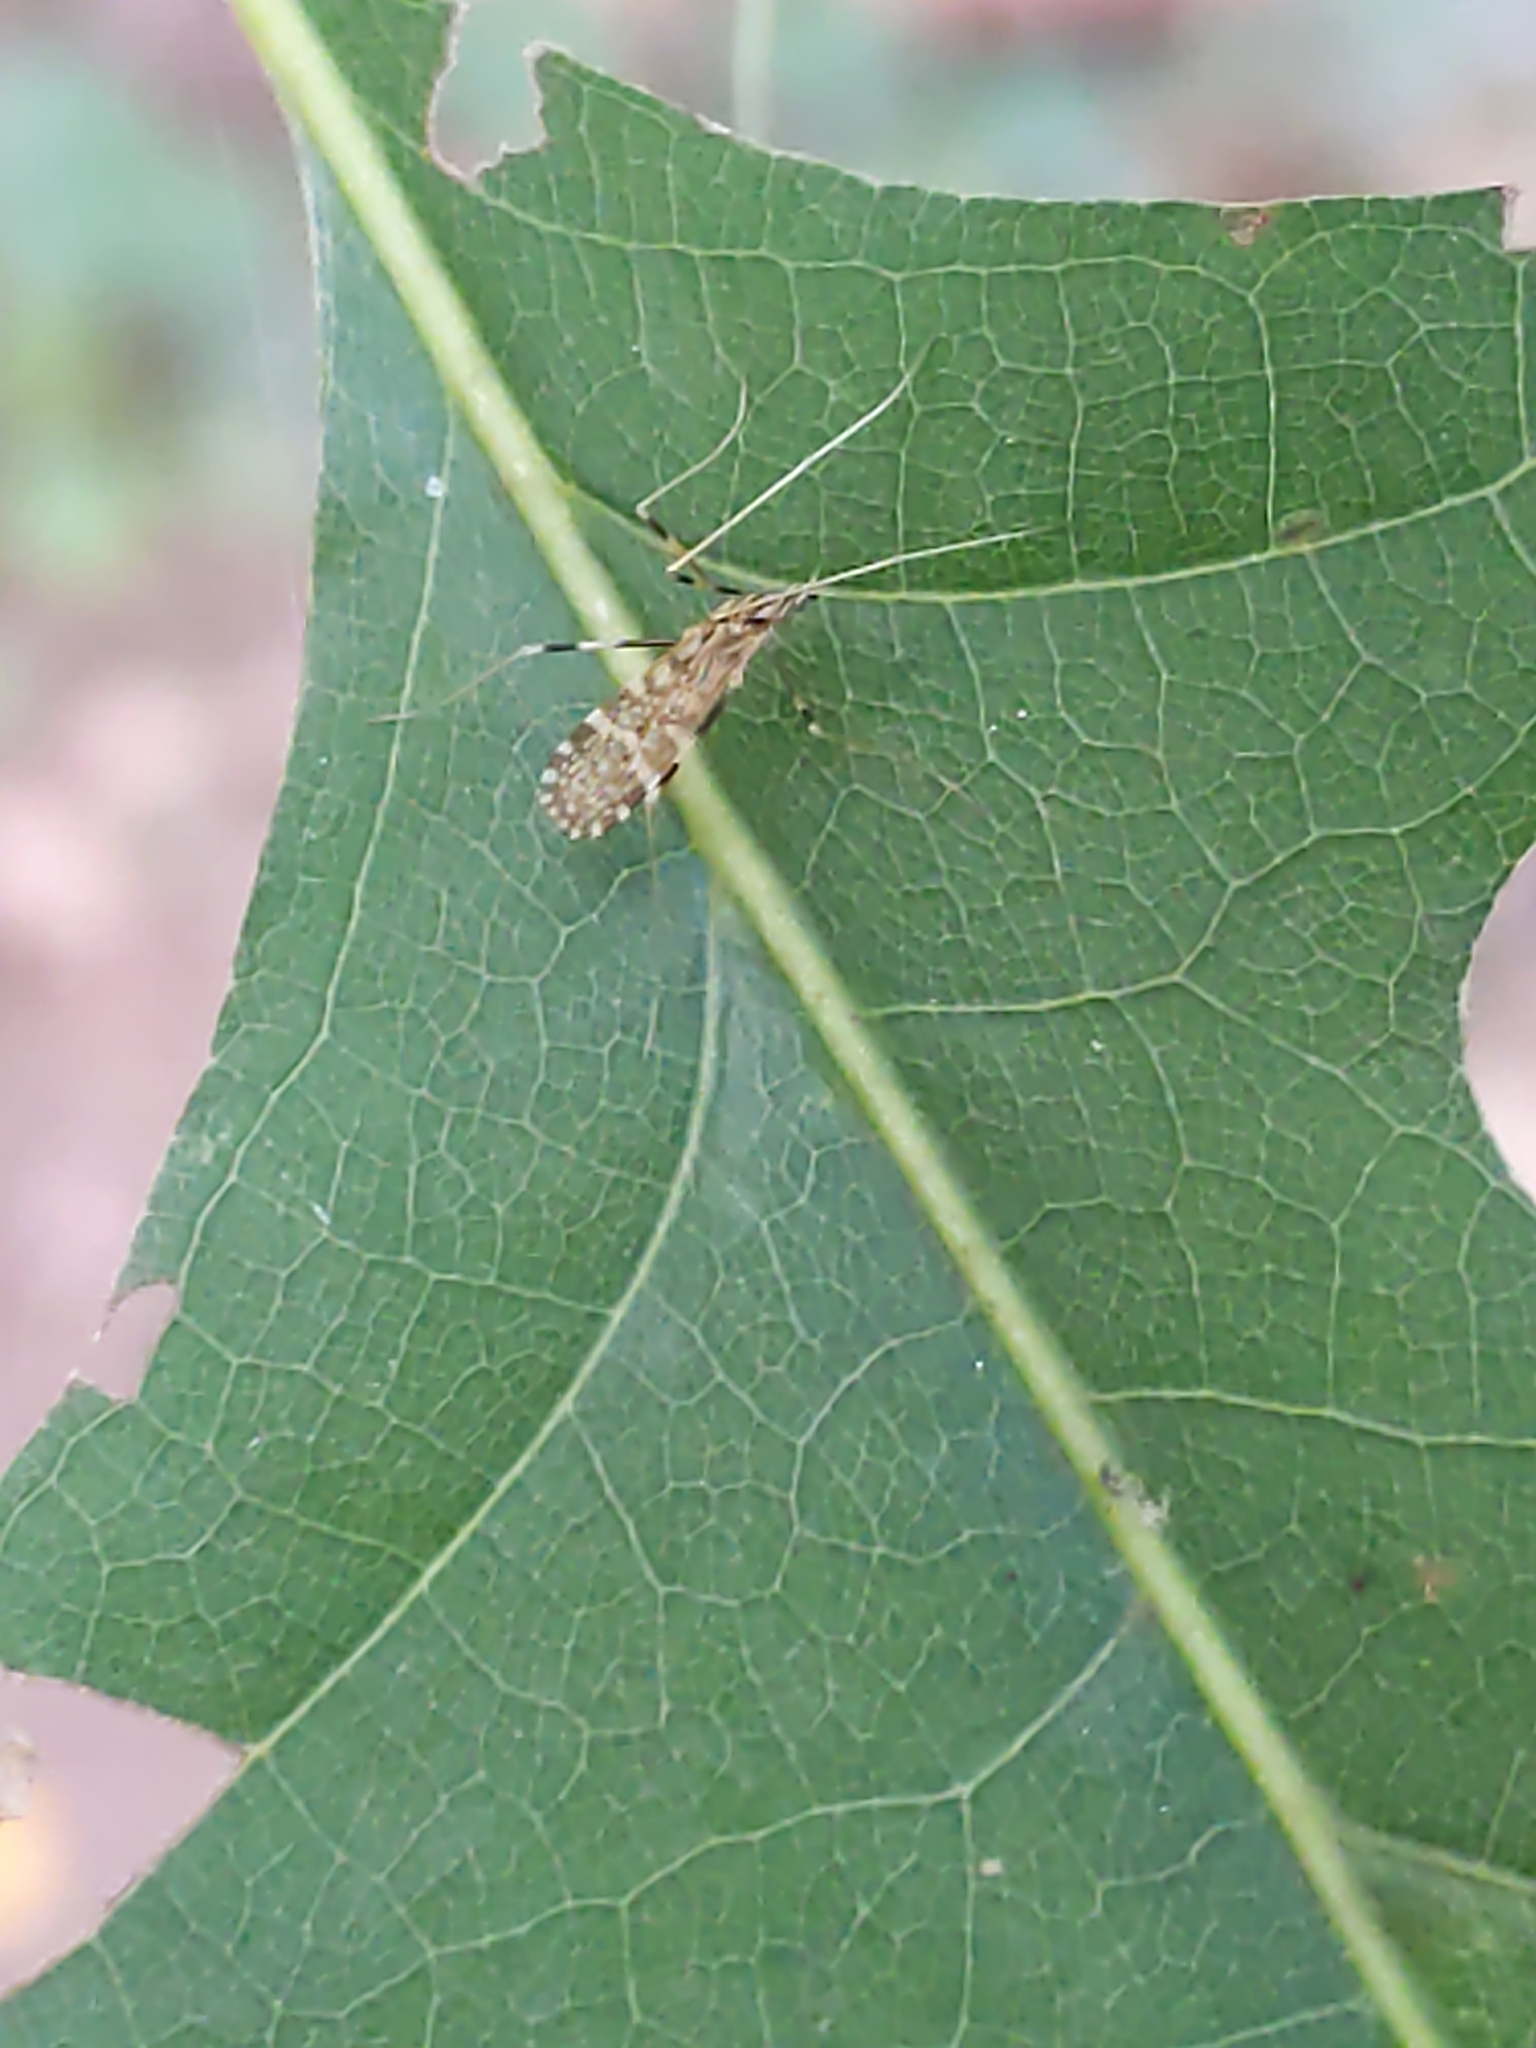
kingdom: Animalia
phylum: Arthropoda
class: Insecta
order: Diptera
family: Limoniidae
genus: Erioptera
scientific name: Erioptera caliptera
